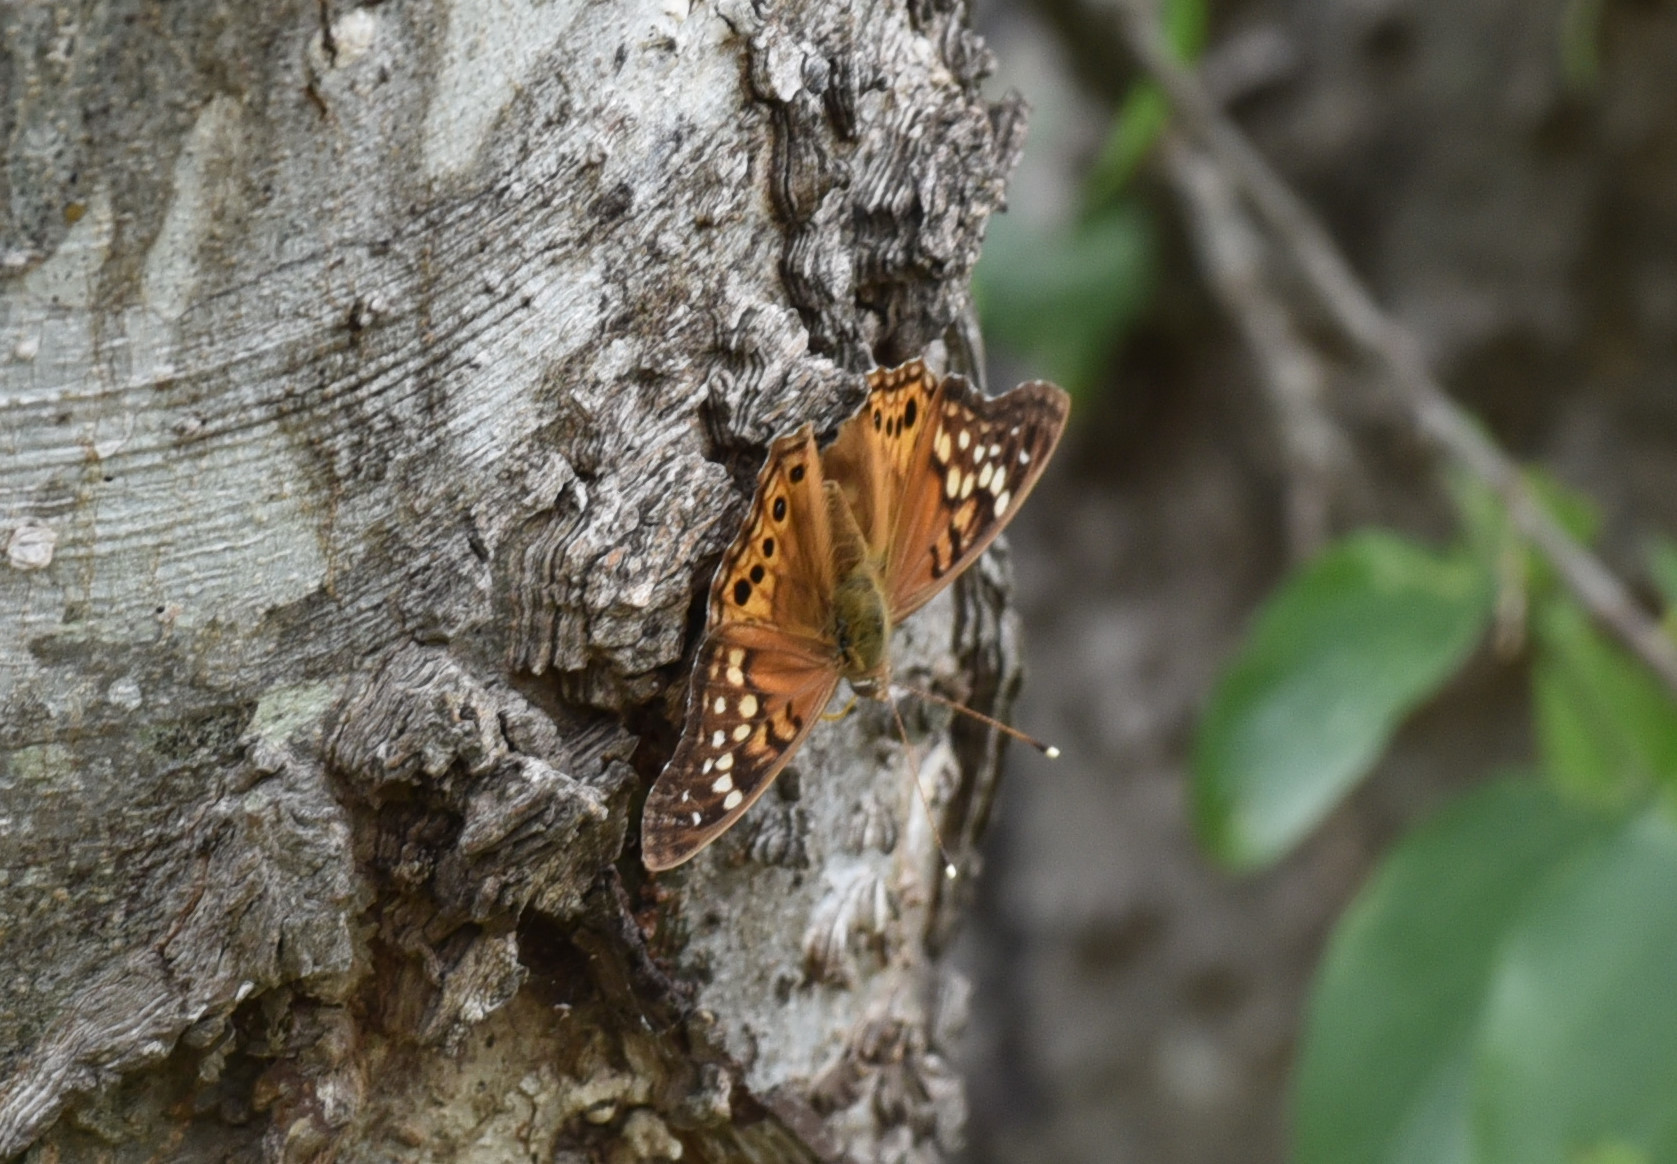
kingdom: Animalia
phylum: Arthropoda
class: Insecta
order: Lepidoptera
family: Nymphalidae
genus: Asterocampa
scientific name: Asterocampa clyton
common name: Tawny emperor
